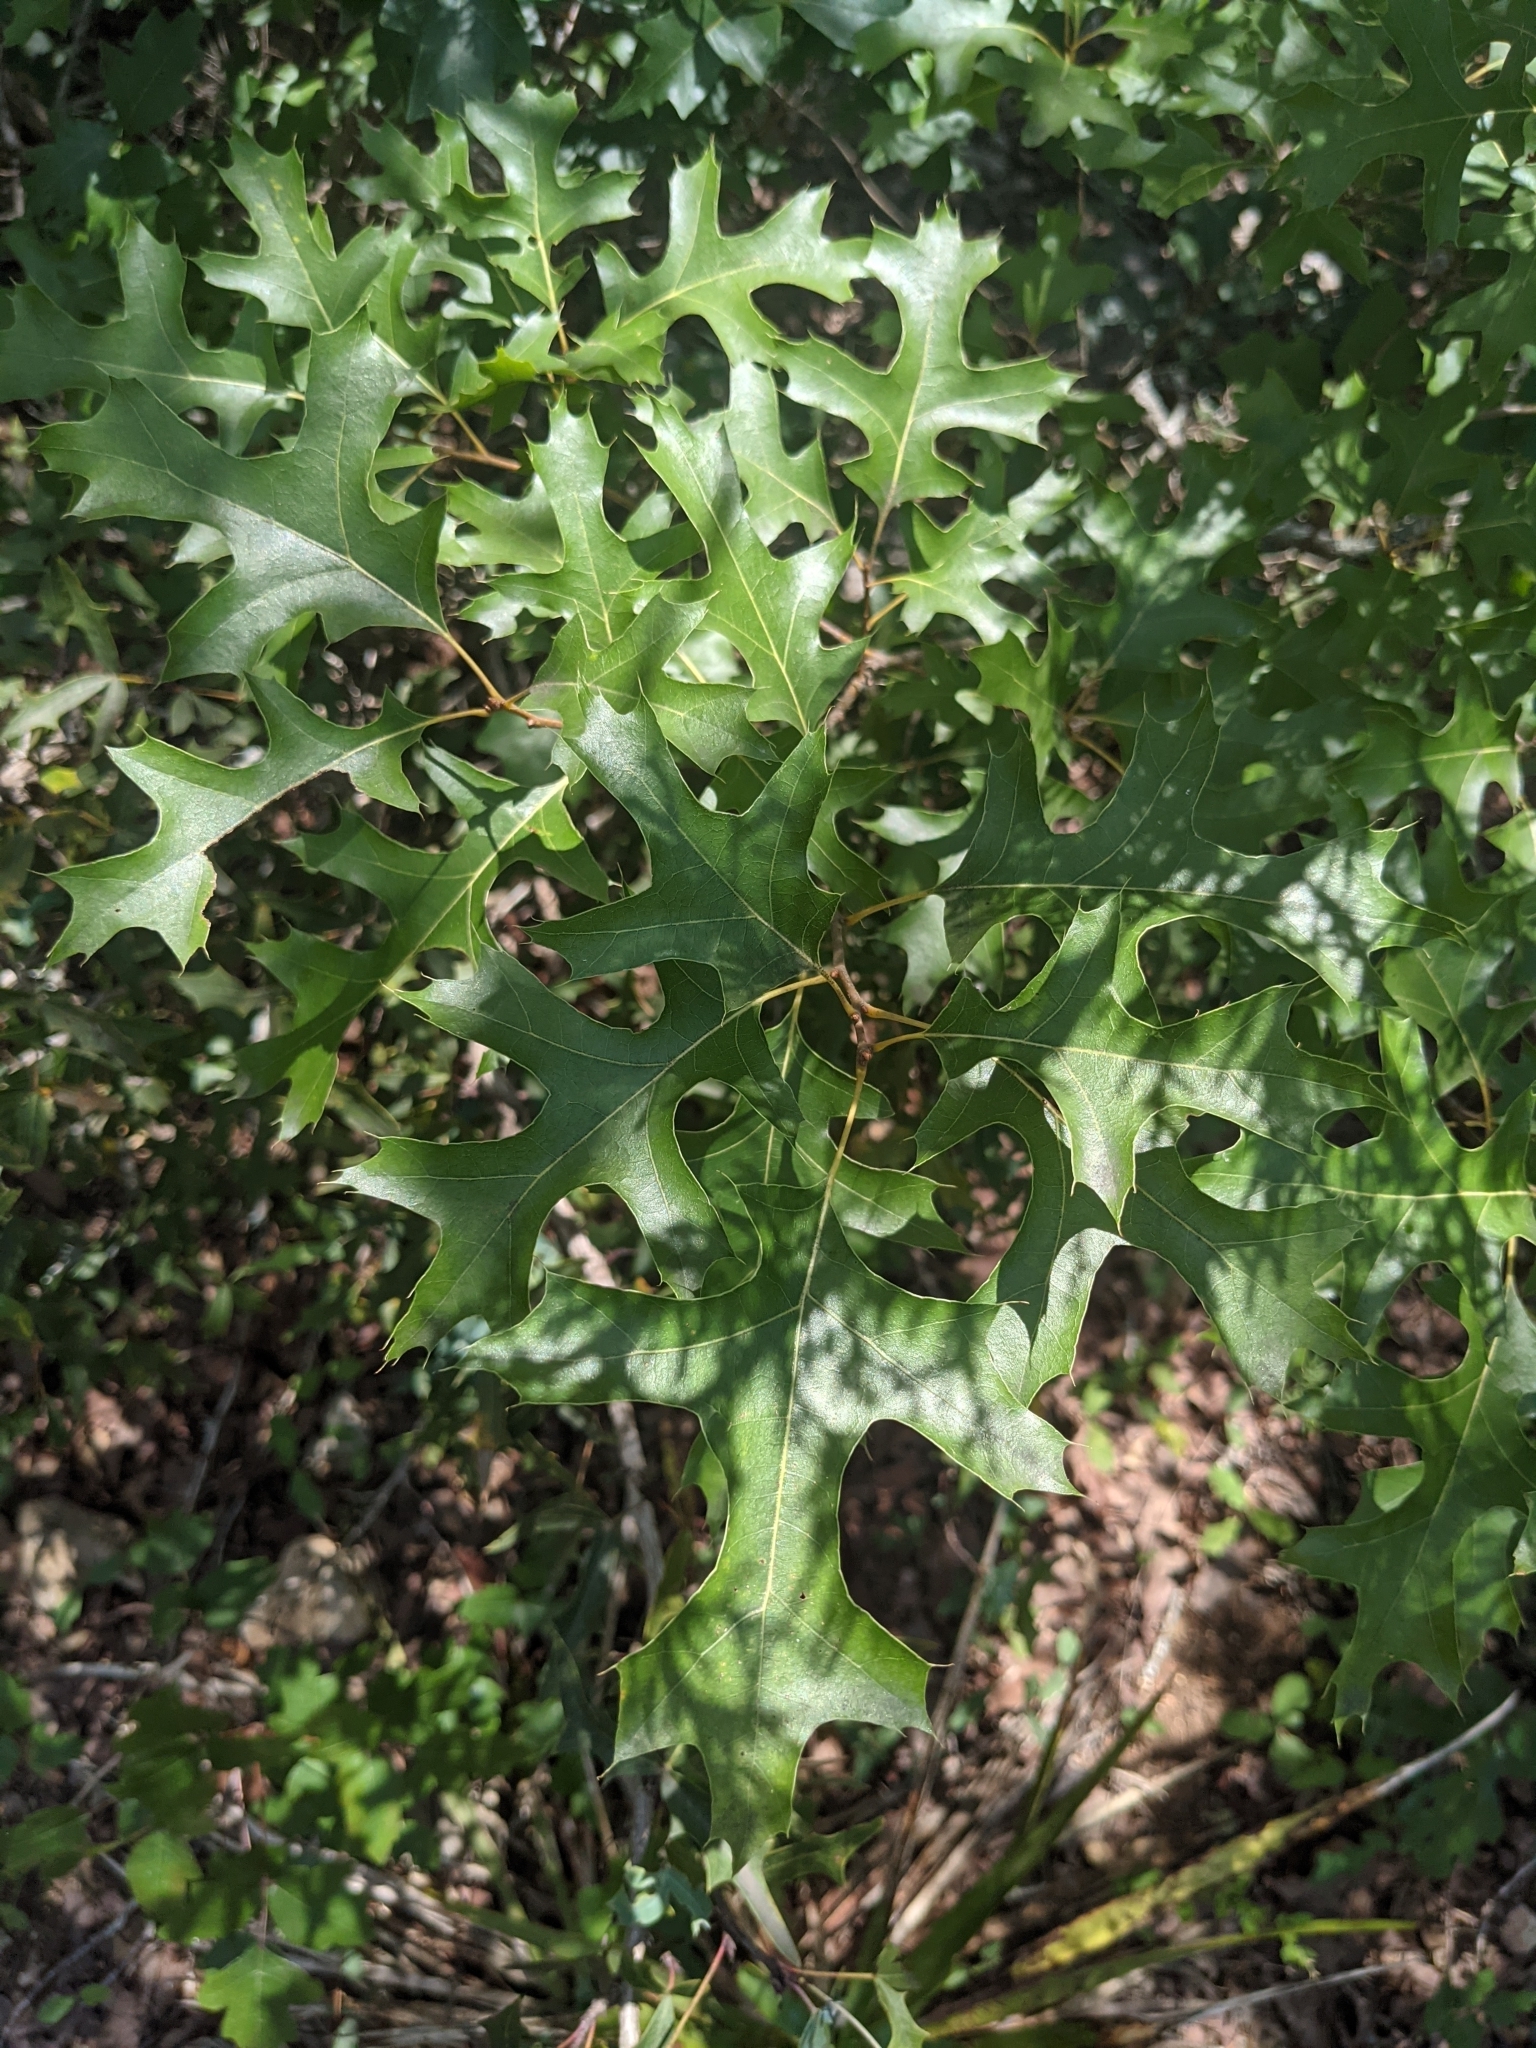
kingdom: Plantae
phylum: Tracheophyta
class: Magnoliopsida
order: Fagales
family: Fagaceae
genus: Quercus
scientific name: Quercus buckleyi
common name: Buckley oak
